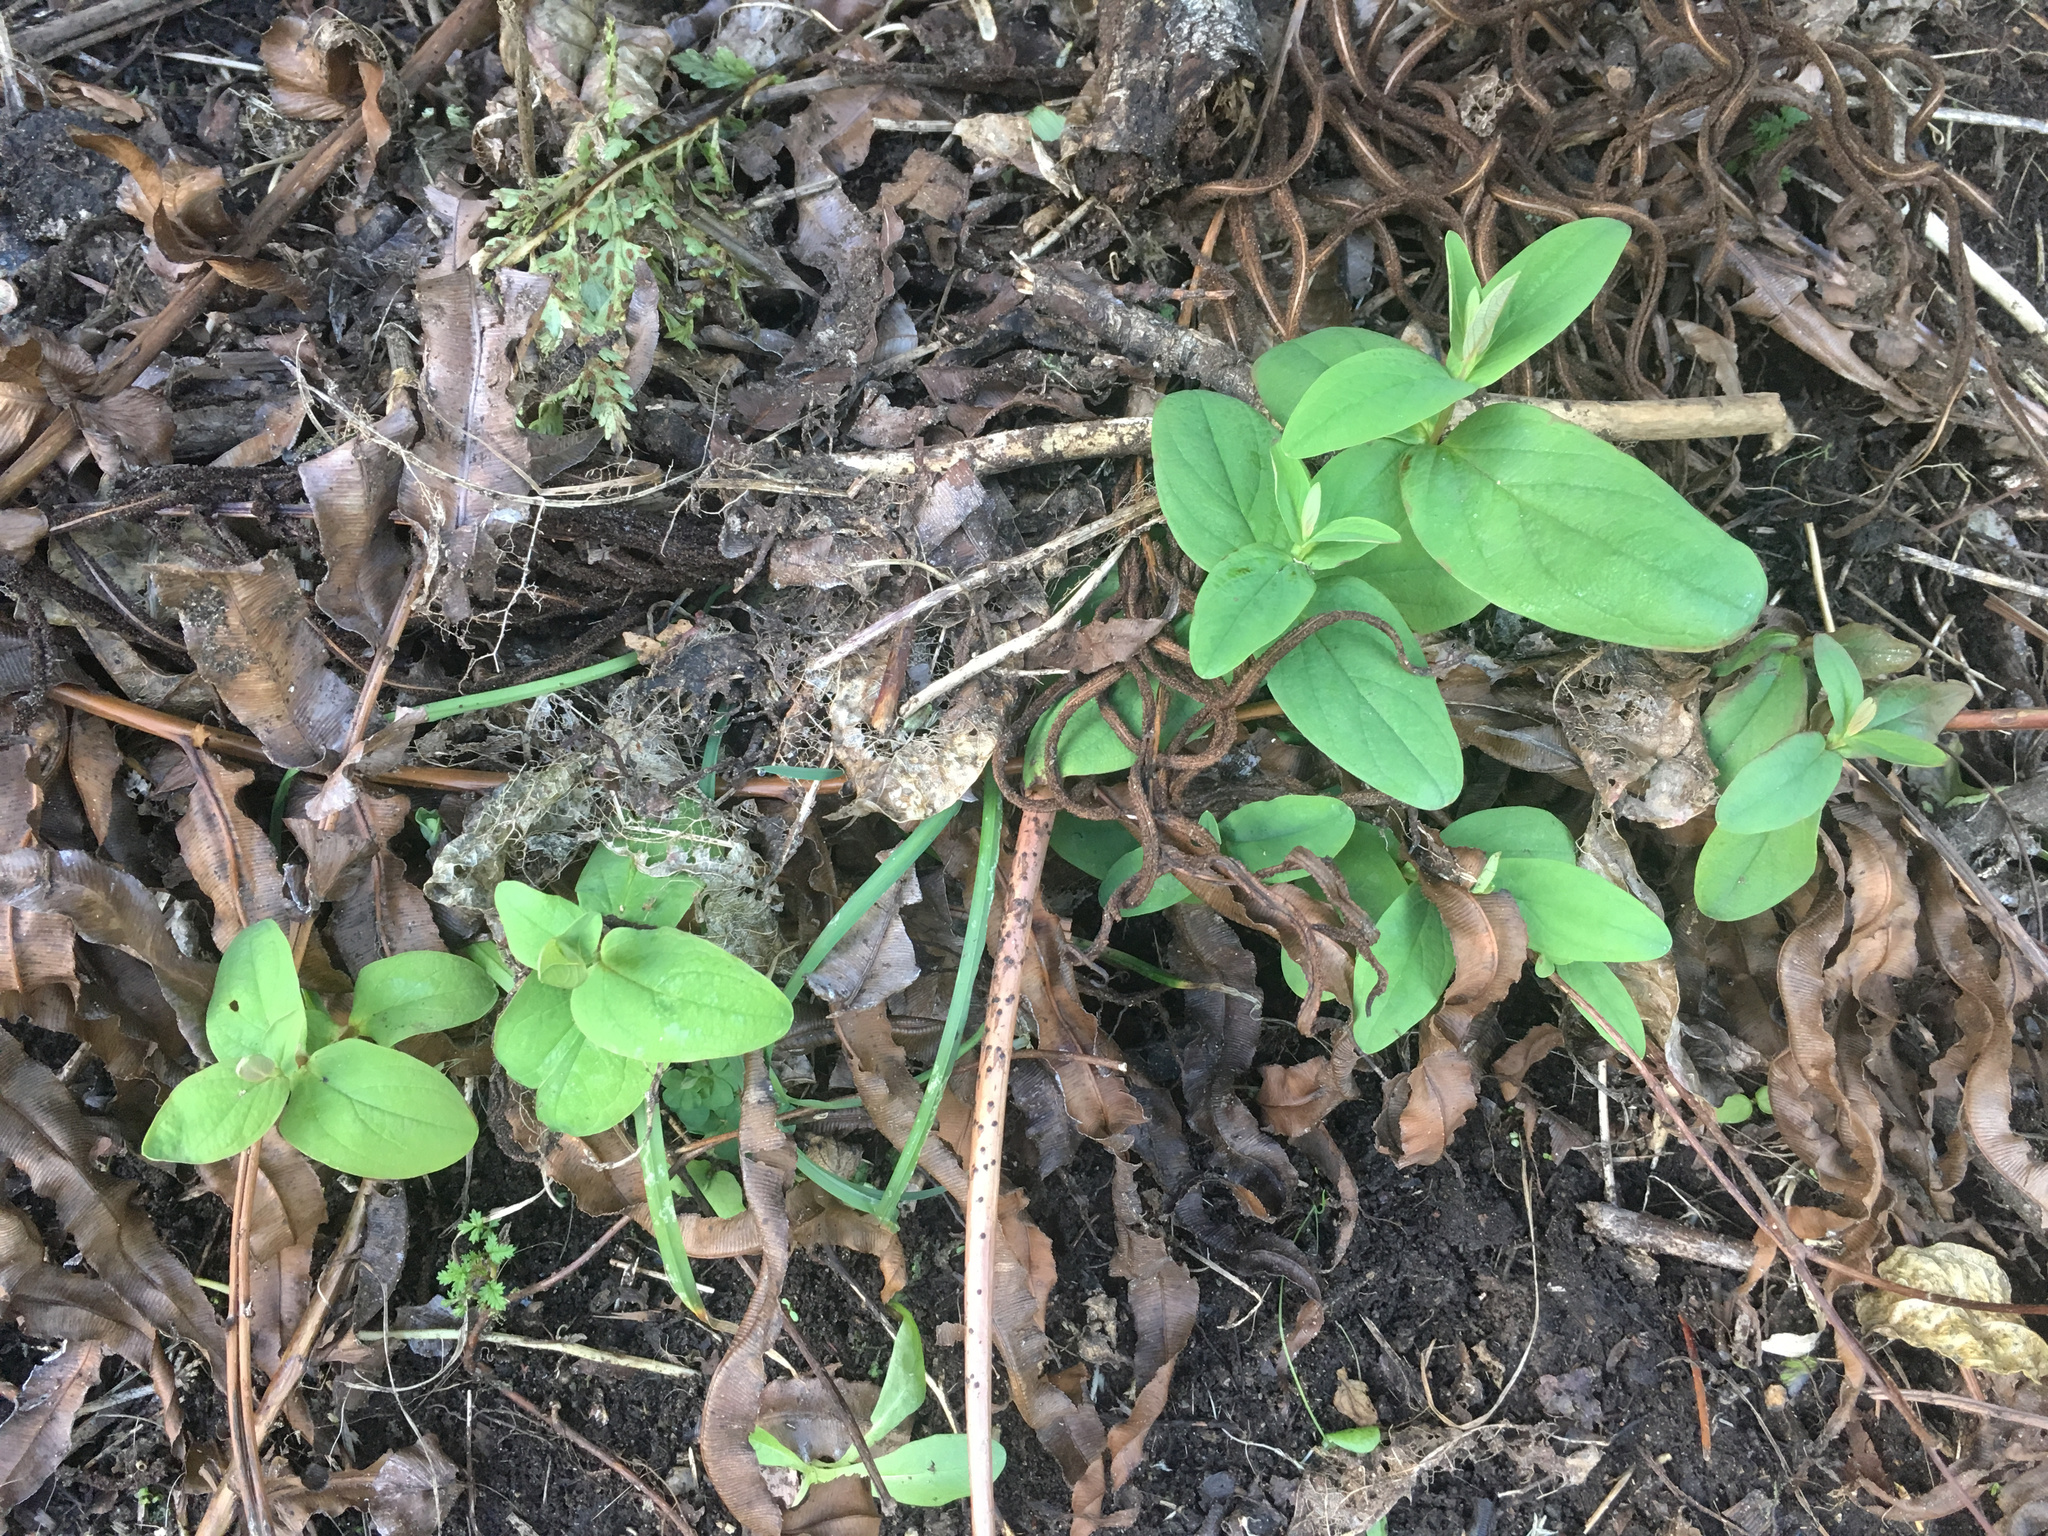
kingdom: Plantae
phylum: Tracheophyta
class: Magnoliopsida
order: Malpighiales
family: Hypericaceae
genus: Hypericum
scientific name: Hypericum androsaemum
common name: Sweet-amber
